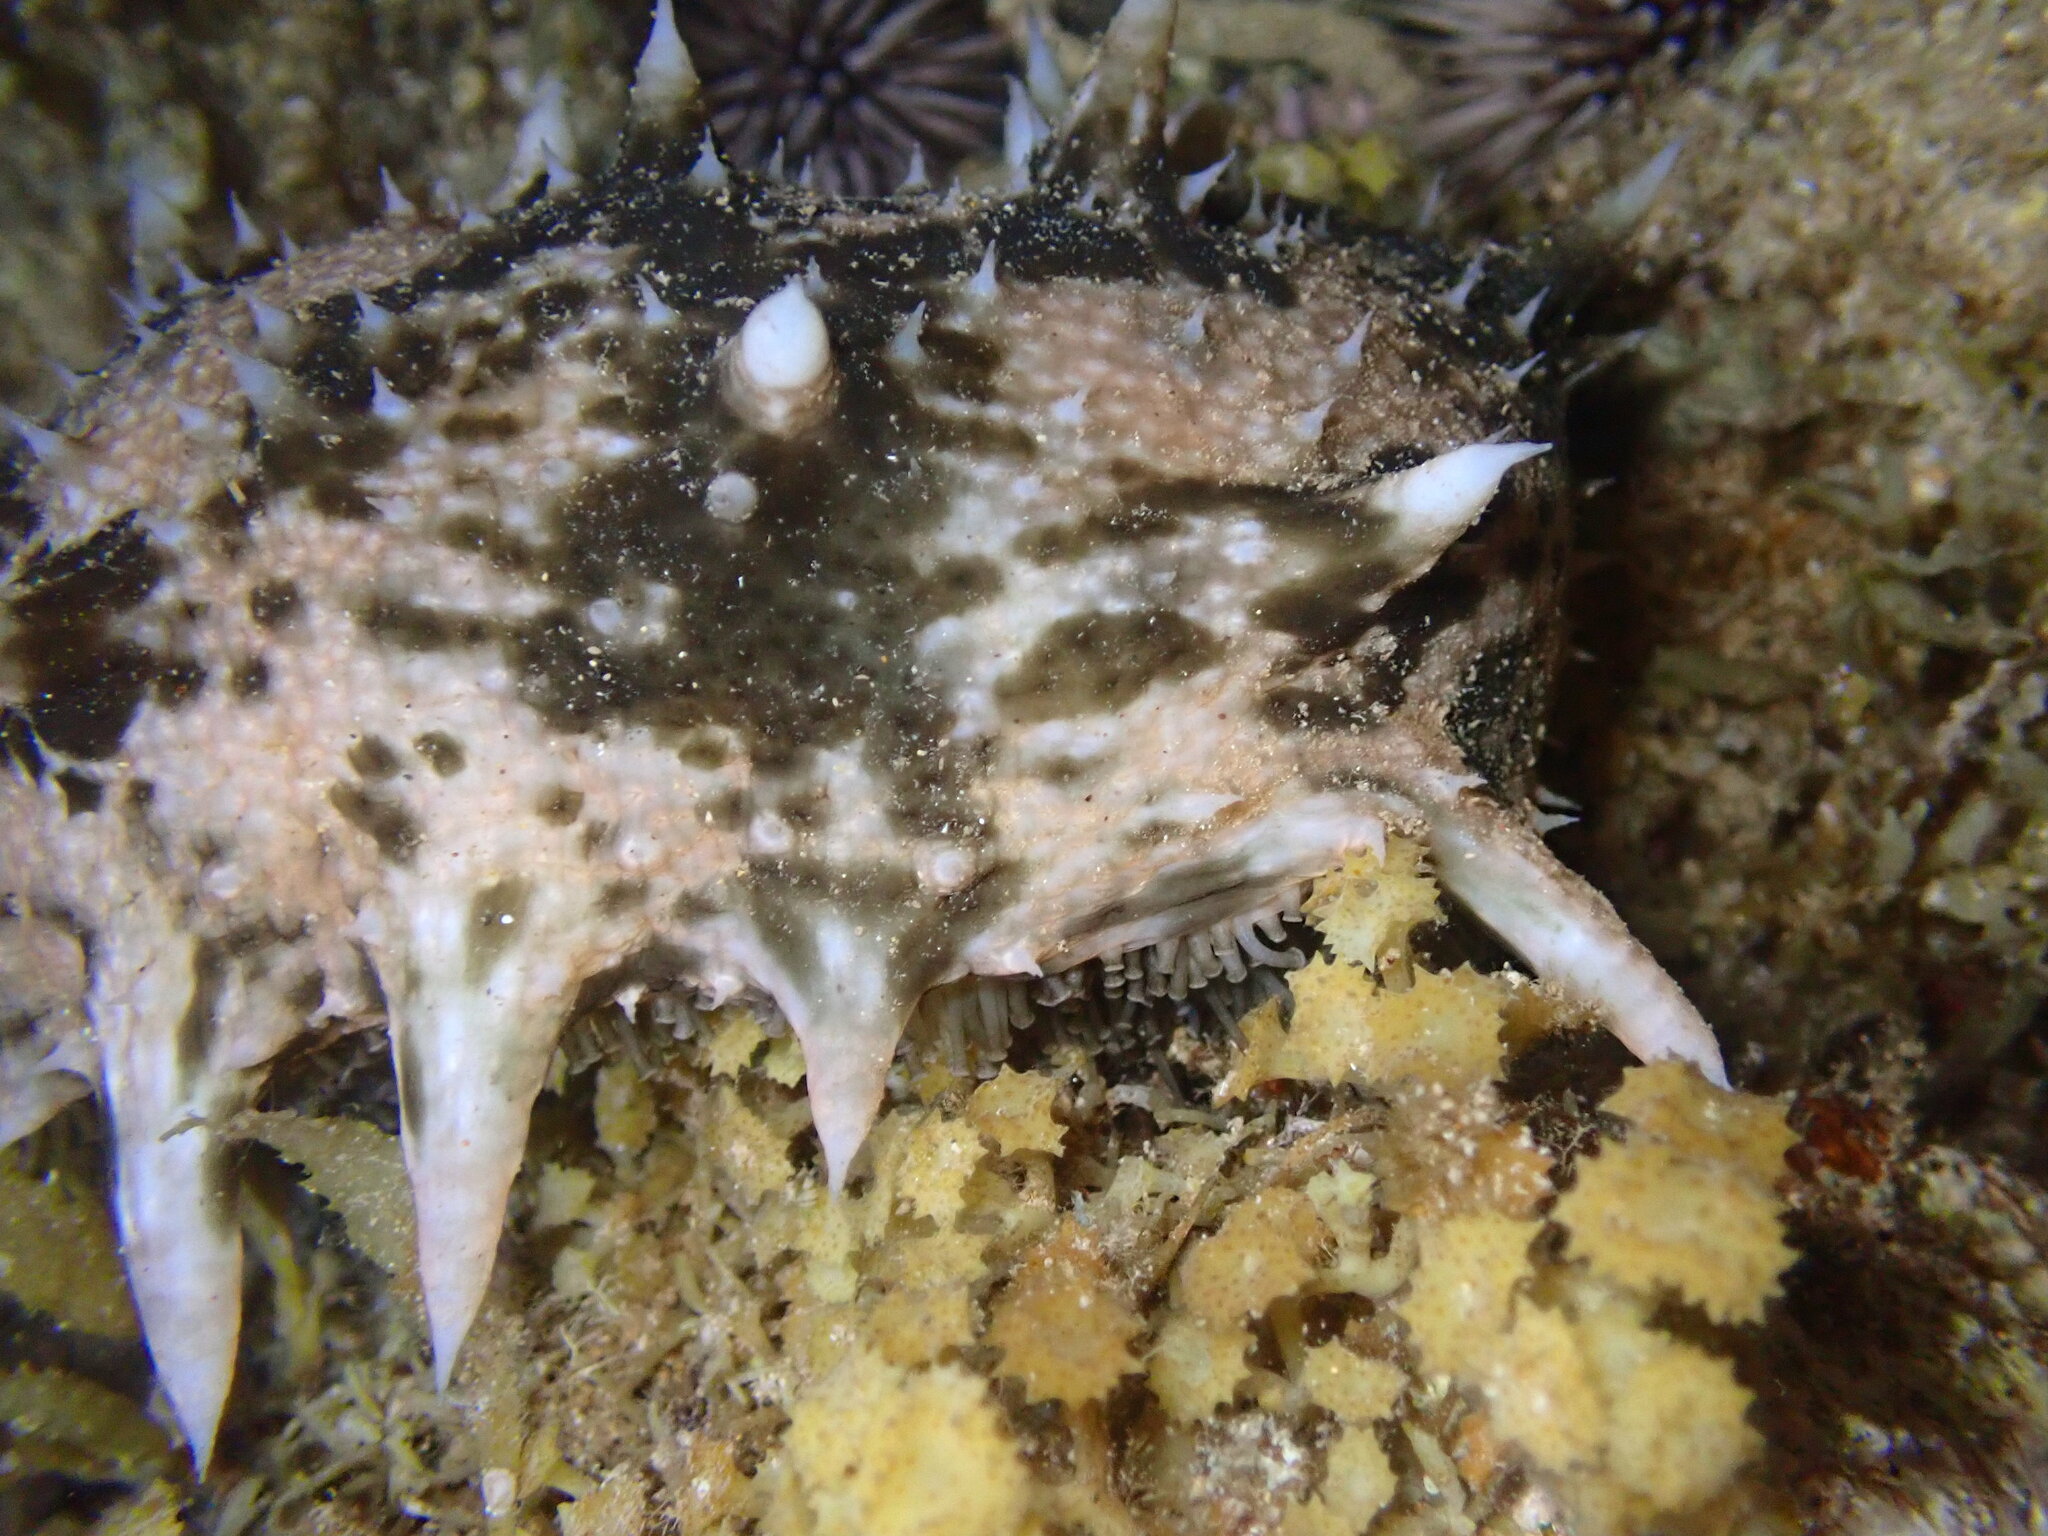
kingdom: Animalia
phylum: Echinodermata
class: Holothuroidea
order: Synallactida
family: Stichopodidae
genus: Stichopus
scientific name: Stichopus horrens
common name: Dragonfish
